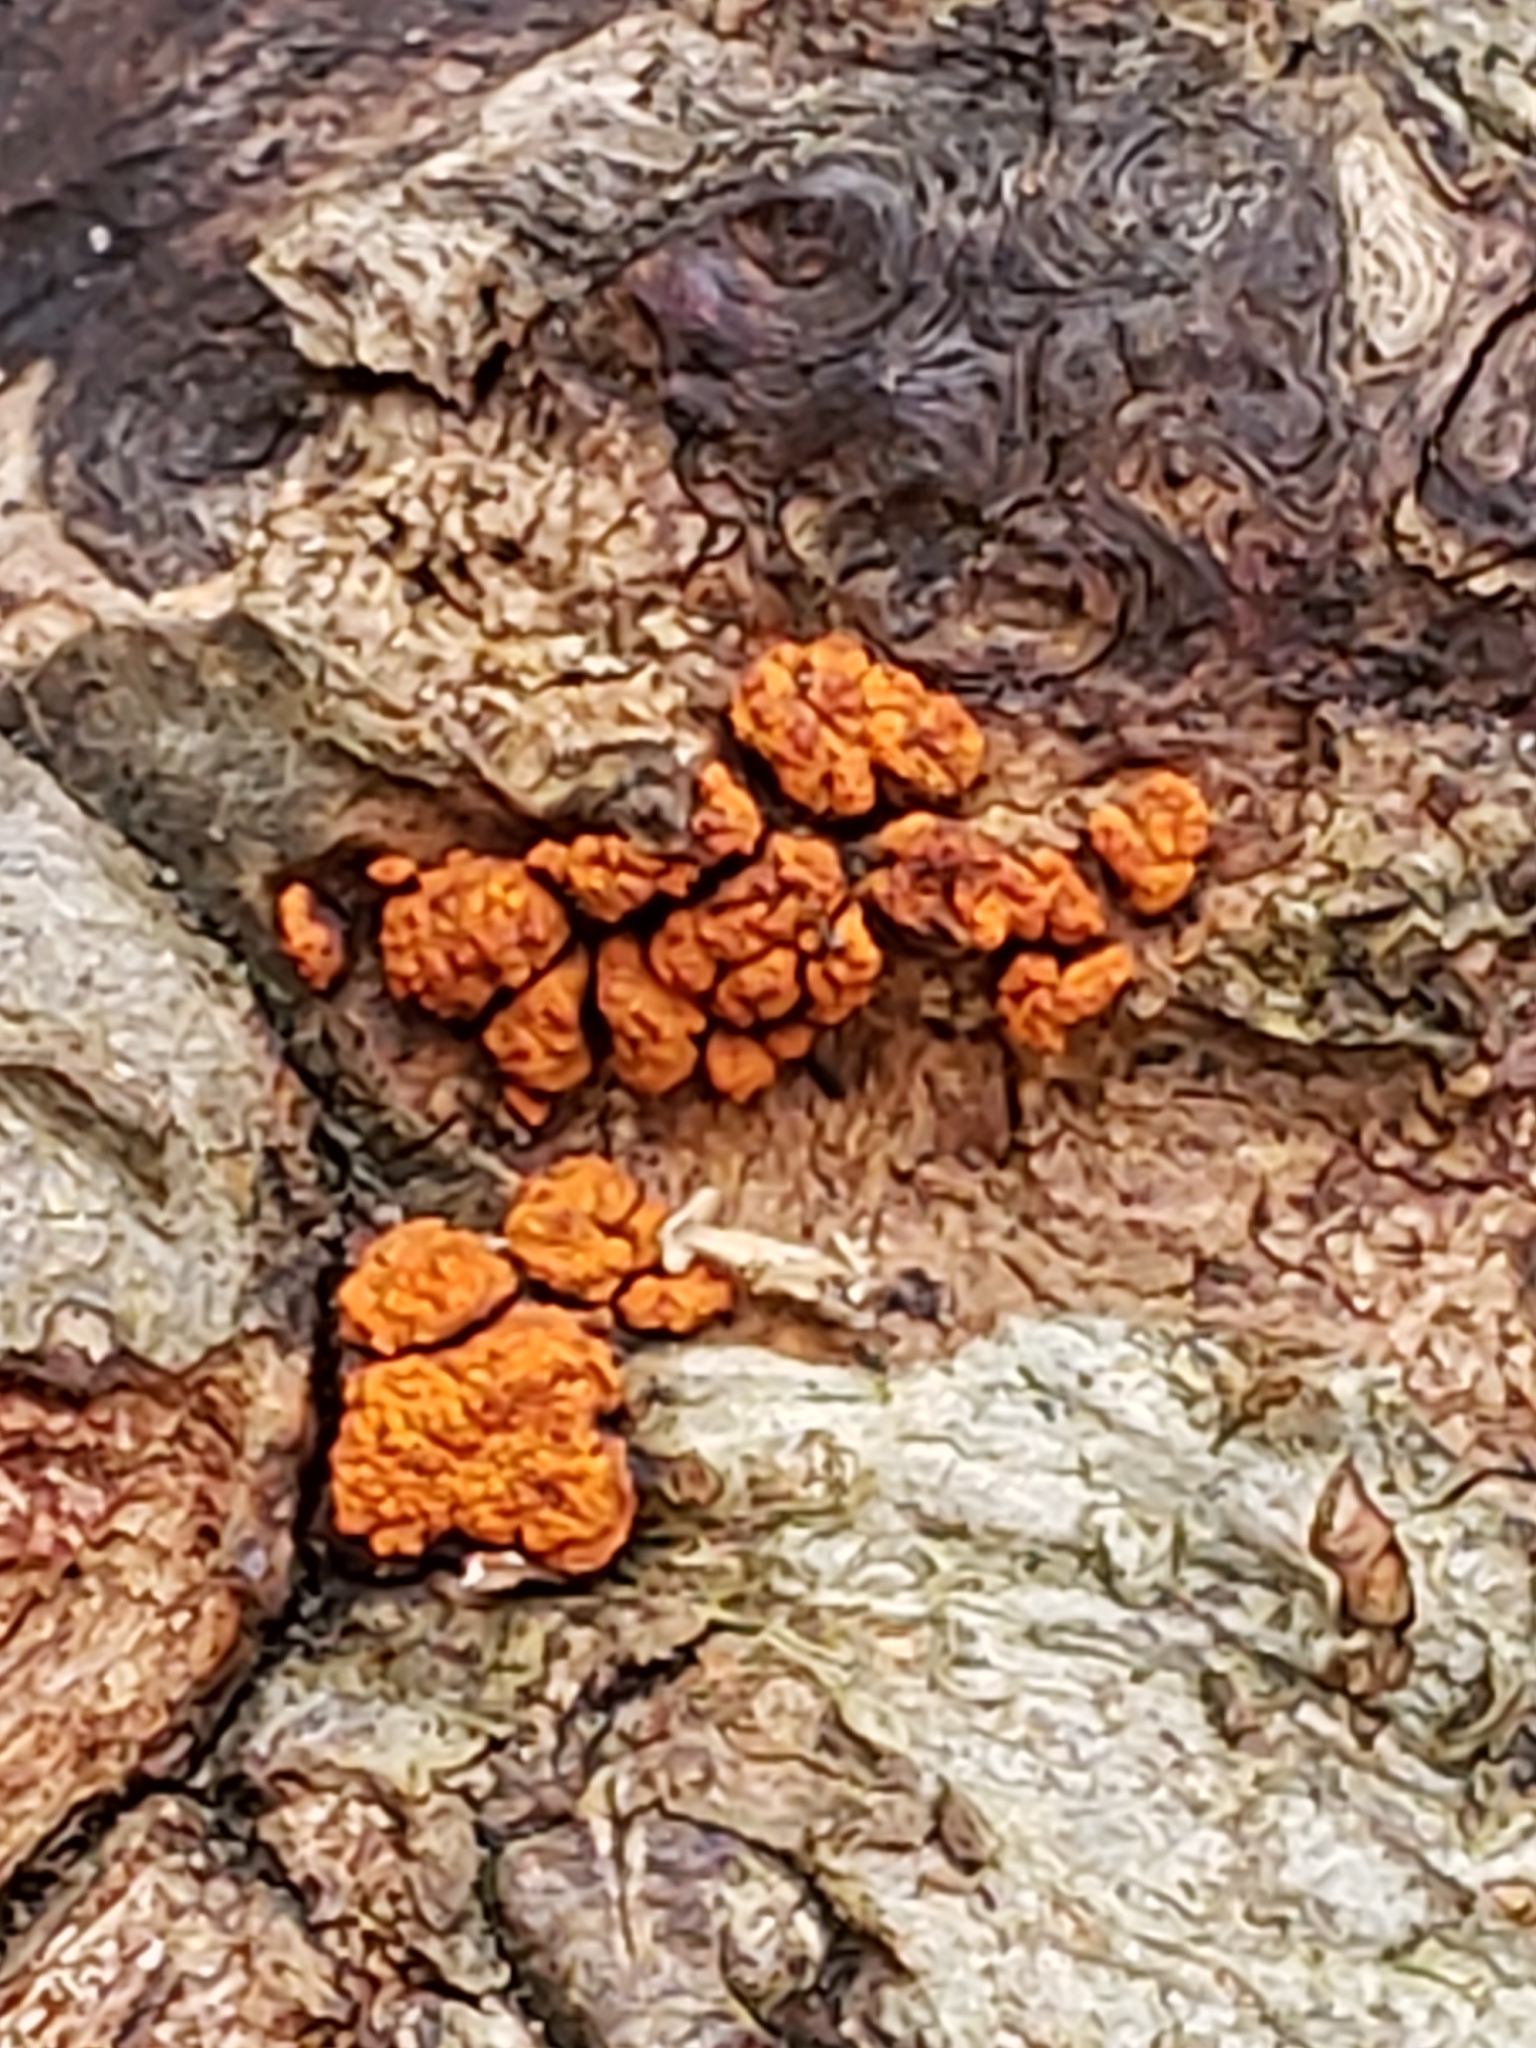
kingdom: Fungi
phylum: Ascomycota
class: Sordariomycetes
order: Diaporthales
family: Cryphonectriaceae
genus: Amphilogia
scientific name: Amphilogia gyrosa
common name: Orange hobnail canker
